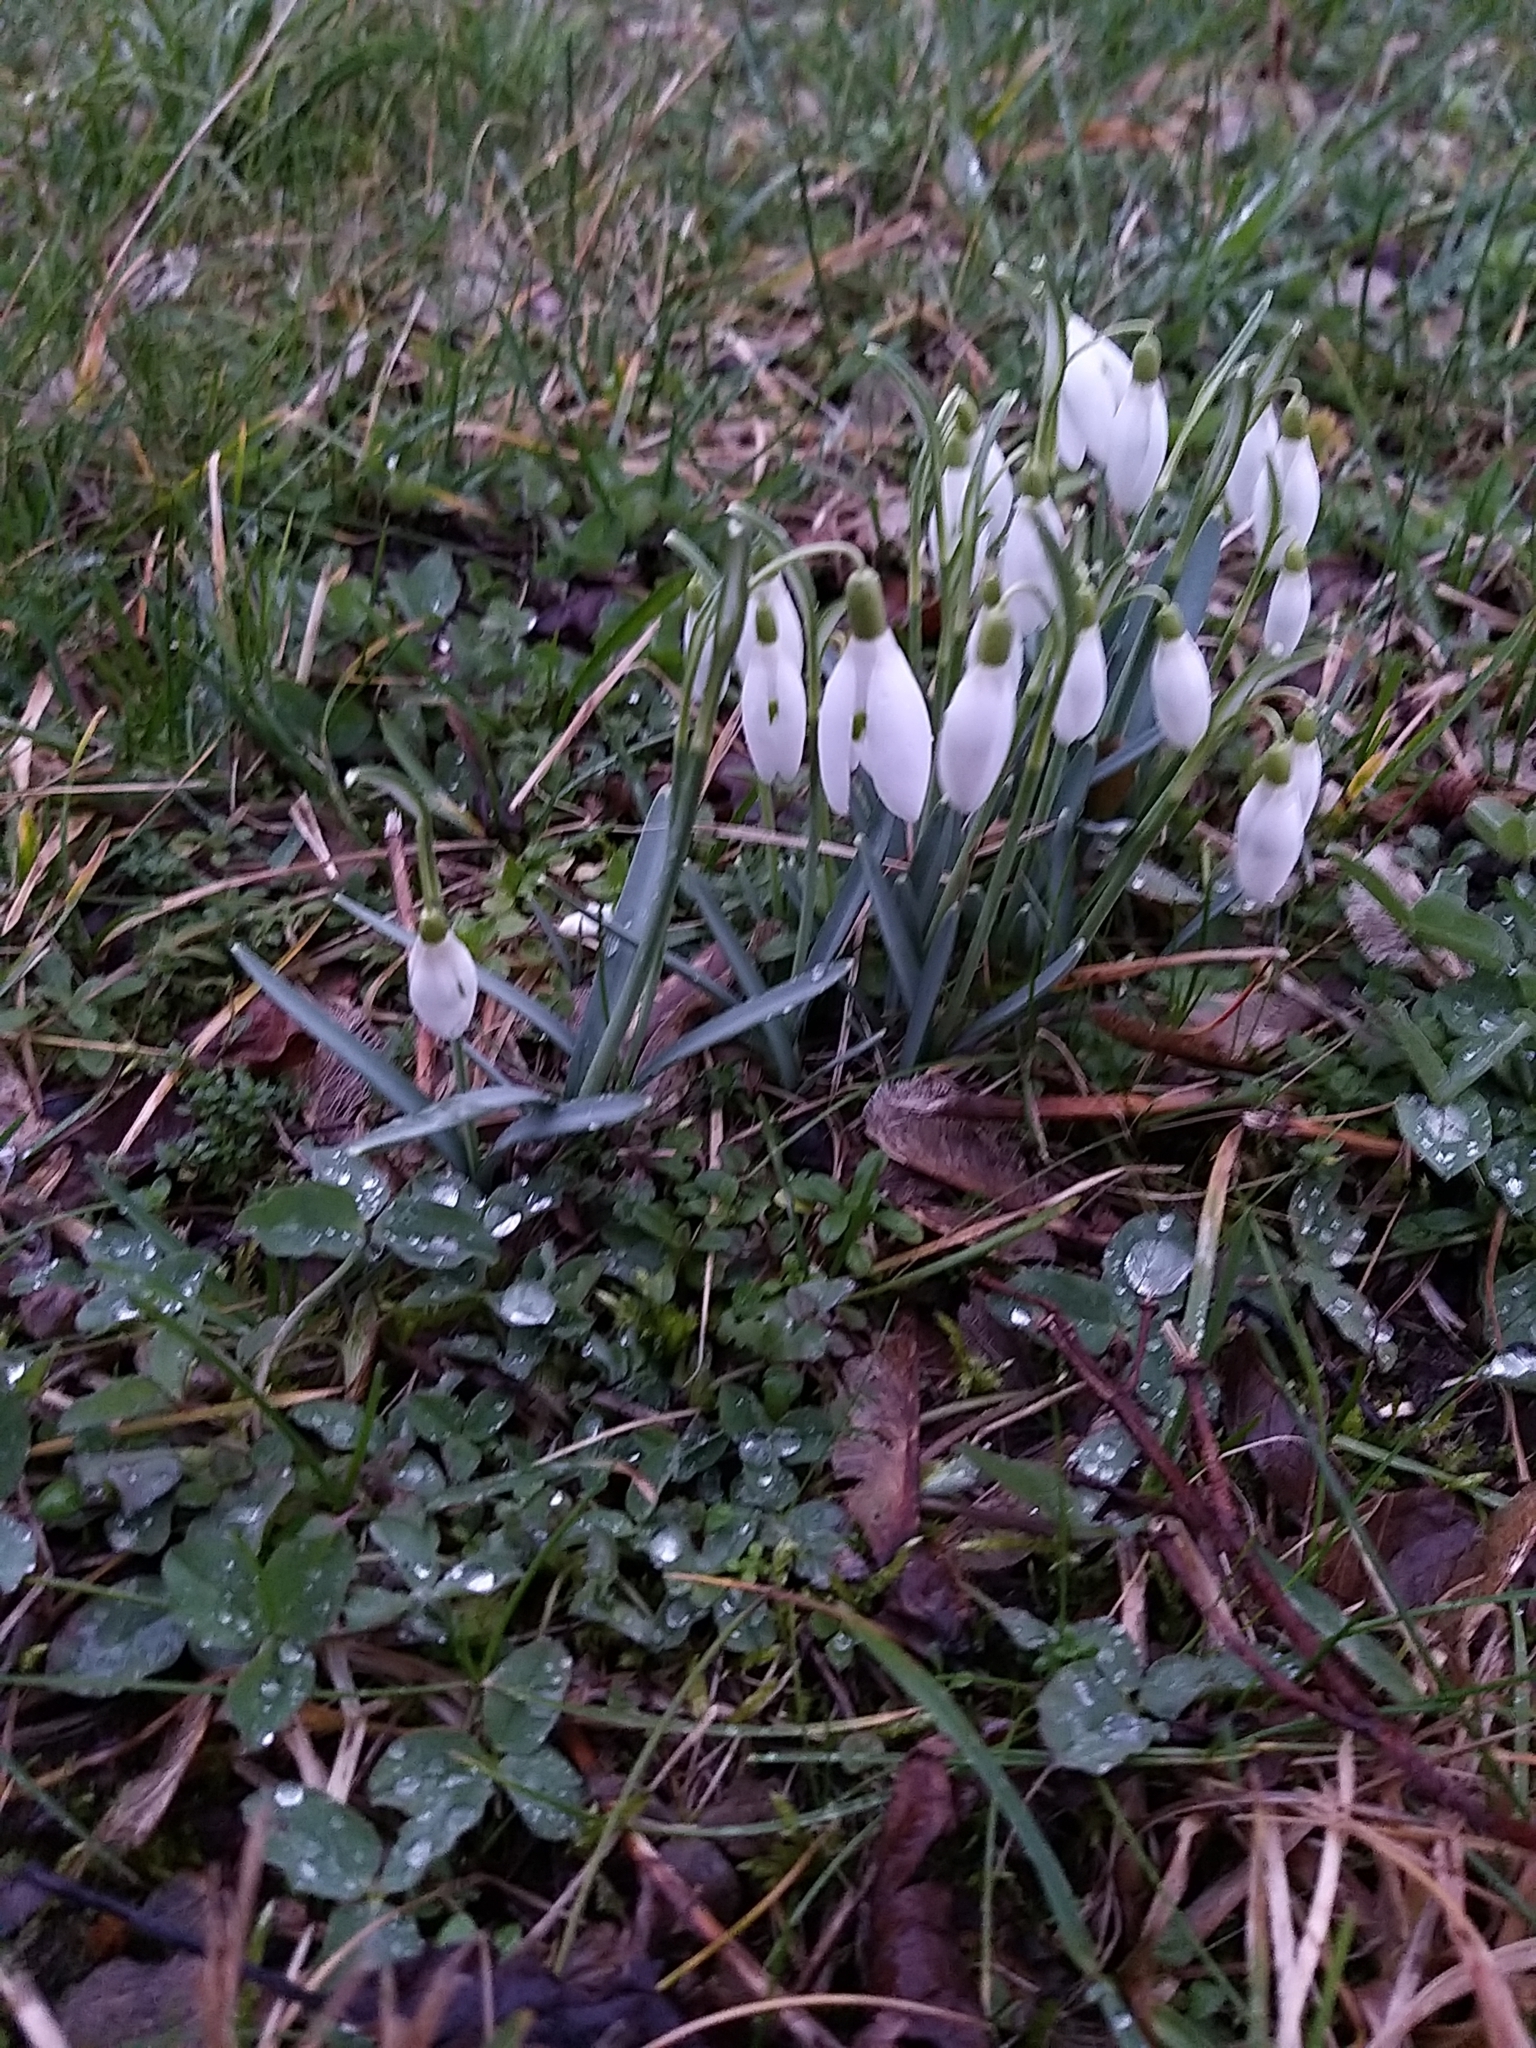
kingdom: Plantae
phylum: Tracheophyta
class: Liliopsida
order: Asparagales
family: Amaryllidaceae
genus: Galanthus
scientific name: Galanthus nivalis
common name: Snowdrop
